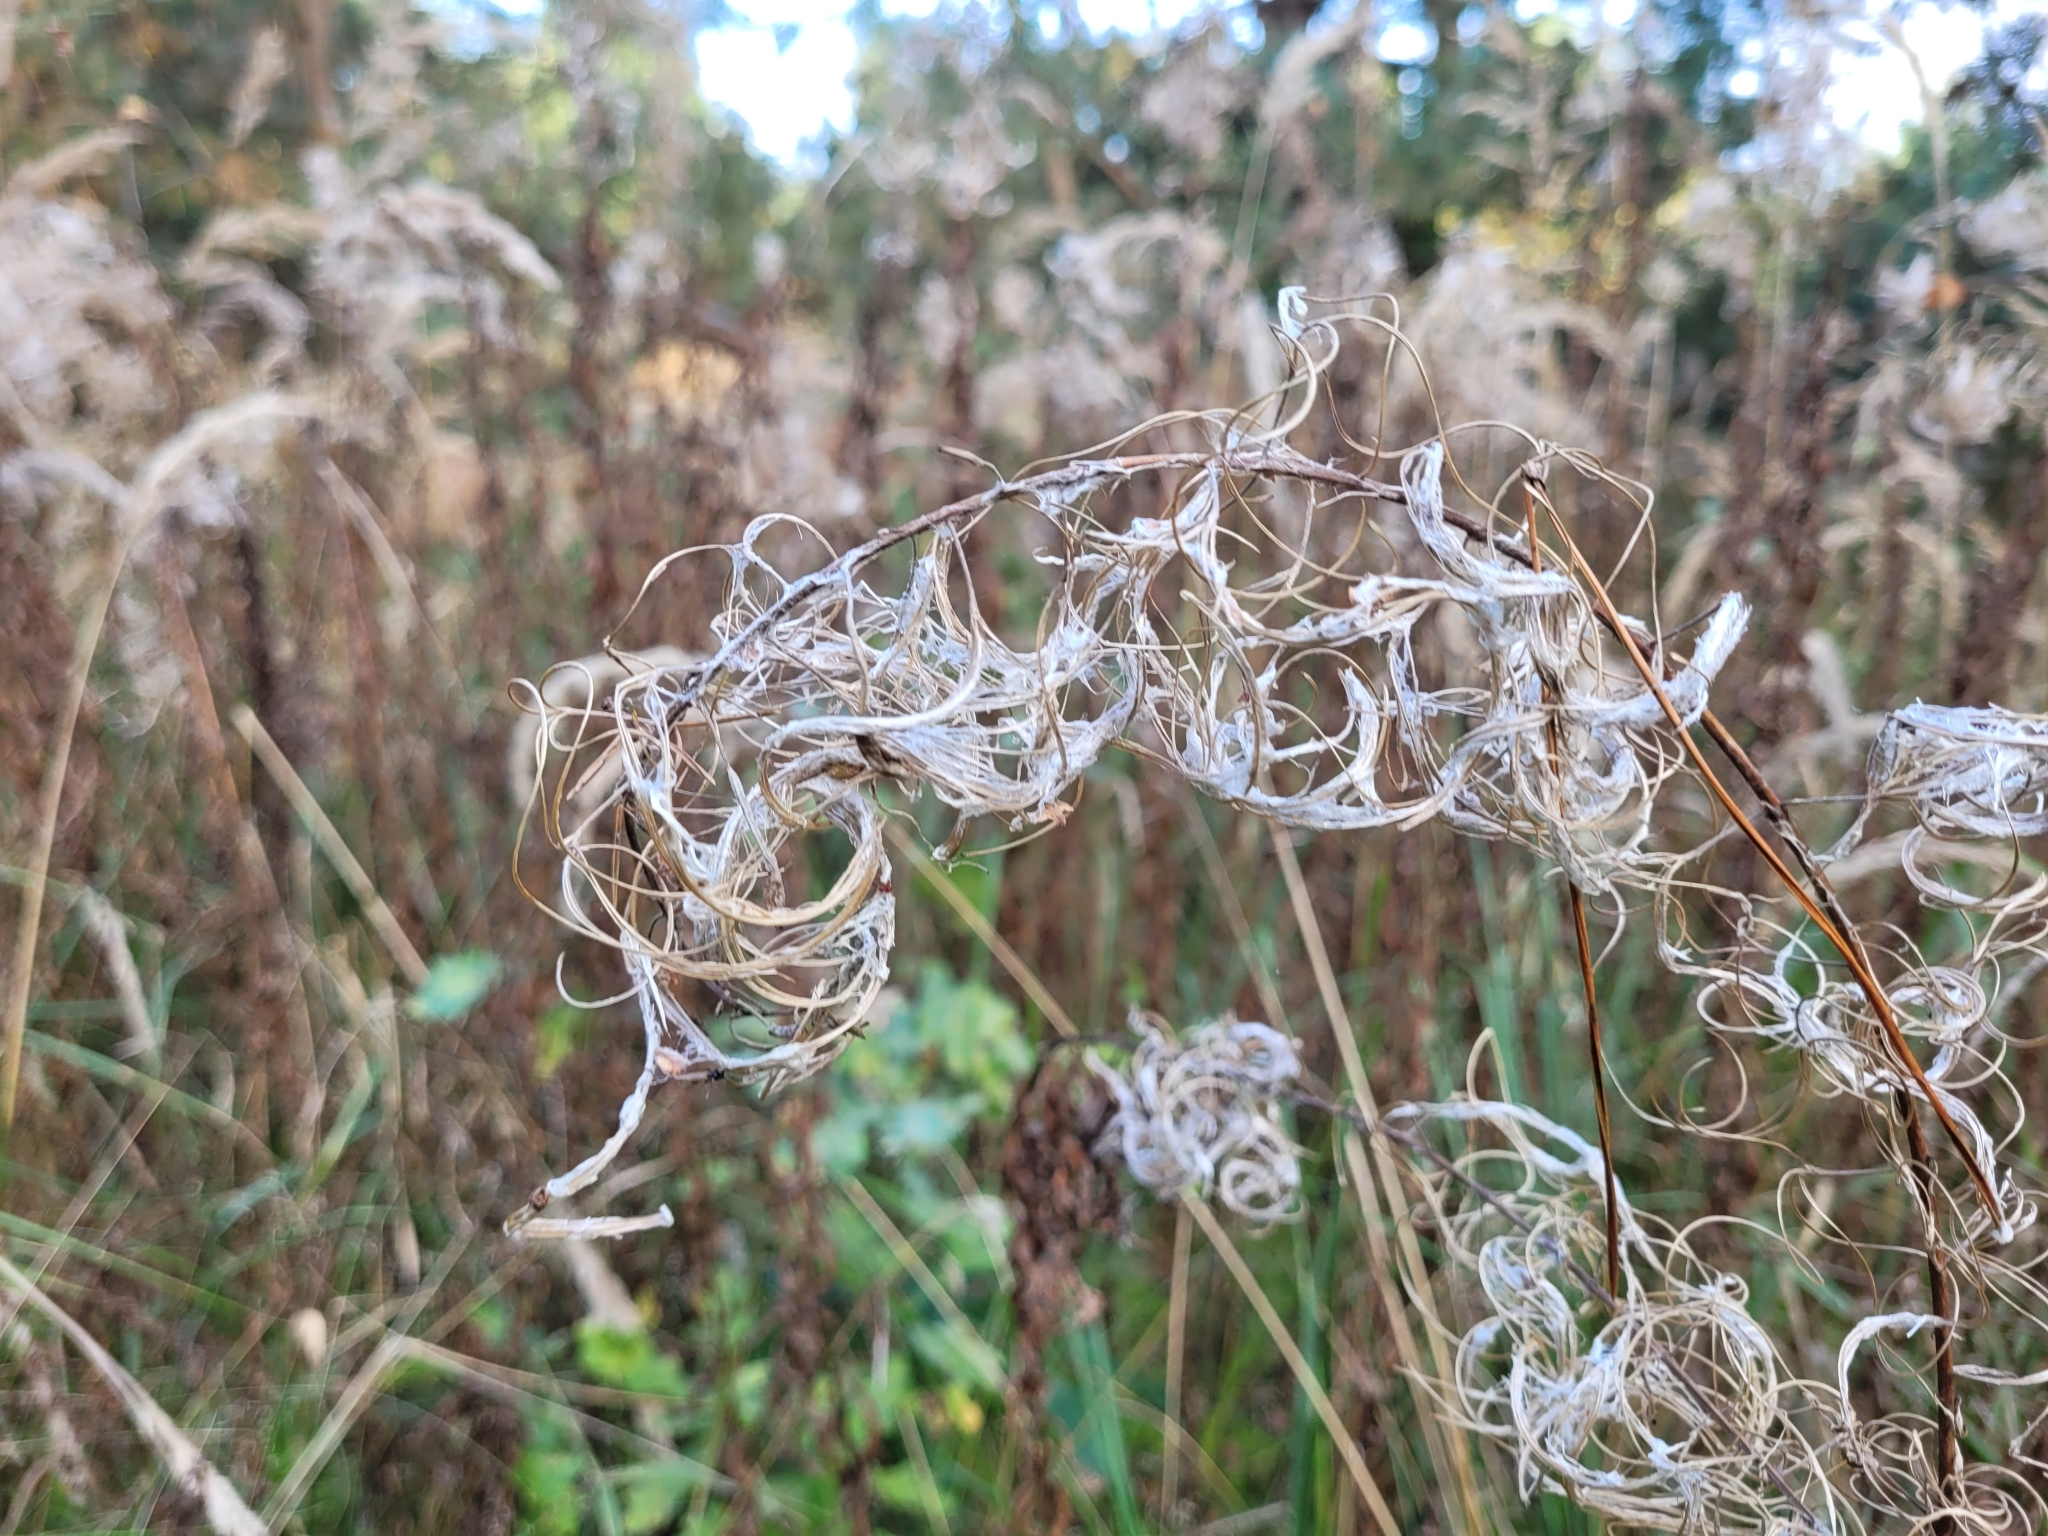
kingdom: Plantae
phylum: Tracheophyta
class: Magnoliopsida
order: Myrtales
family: Onagraceae
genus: Chamaenerion
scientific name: Chamaenerion angustifolium
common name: Fireweed
